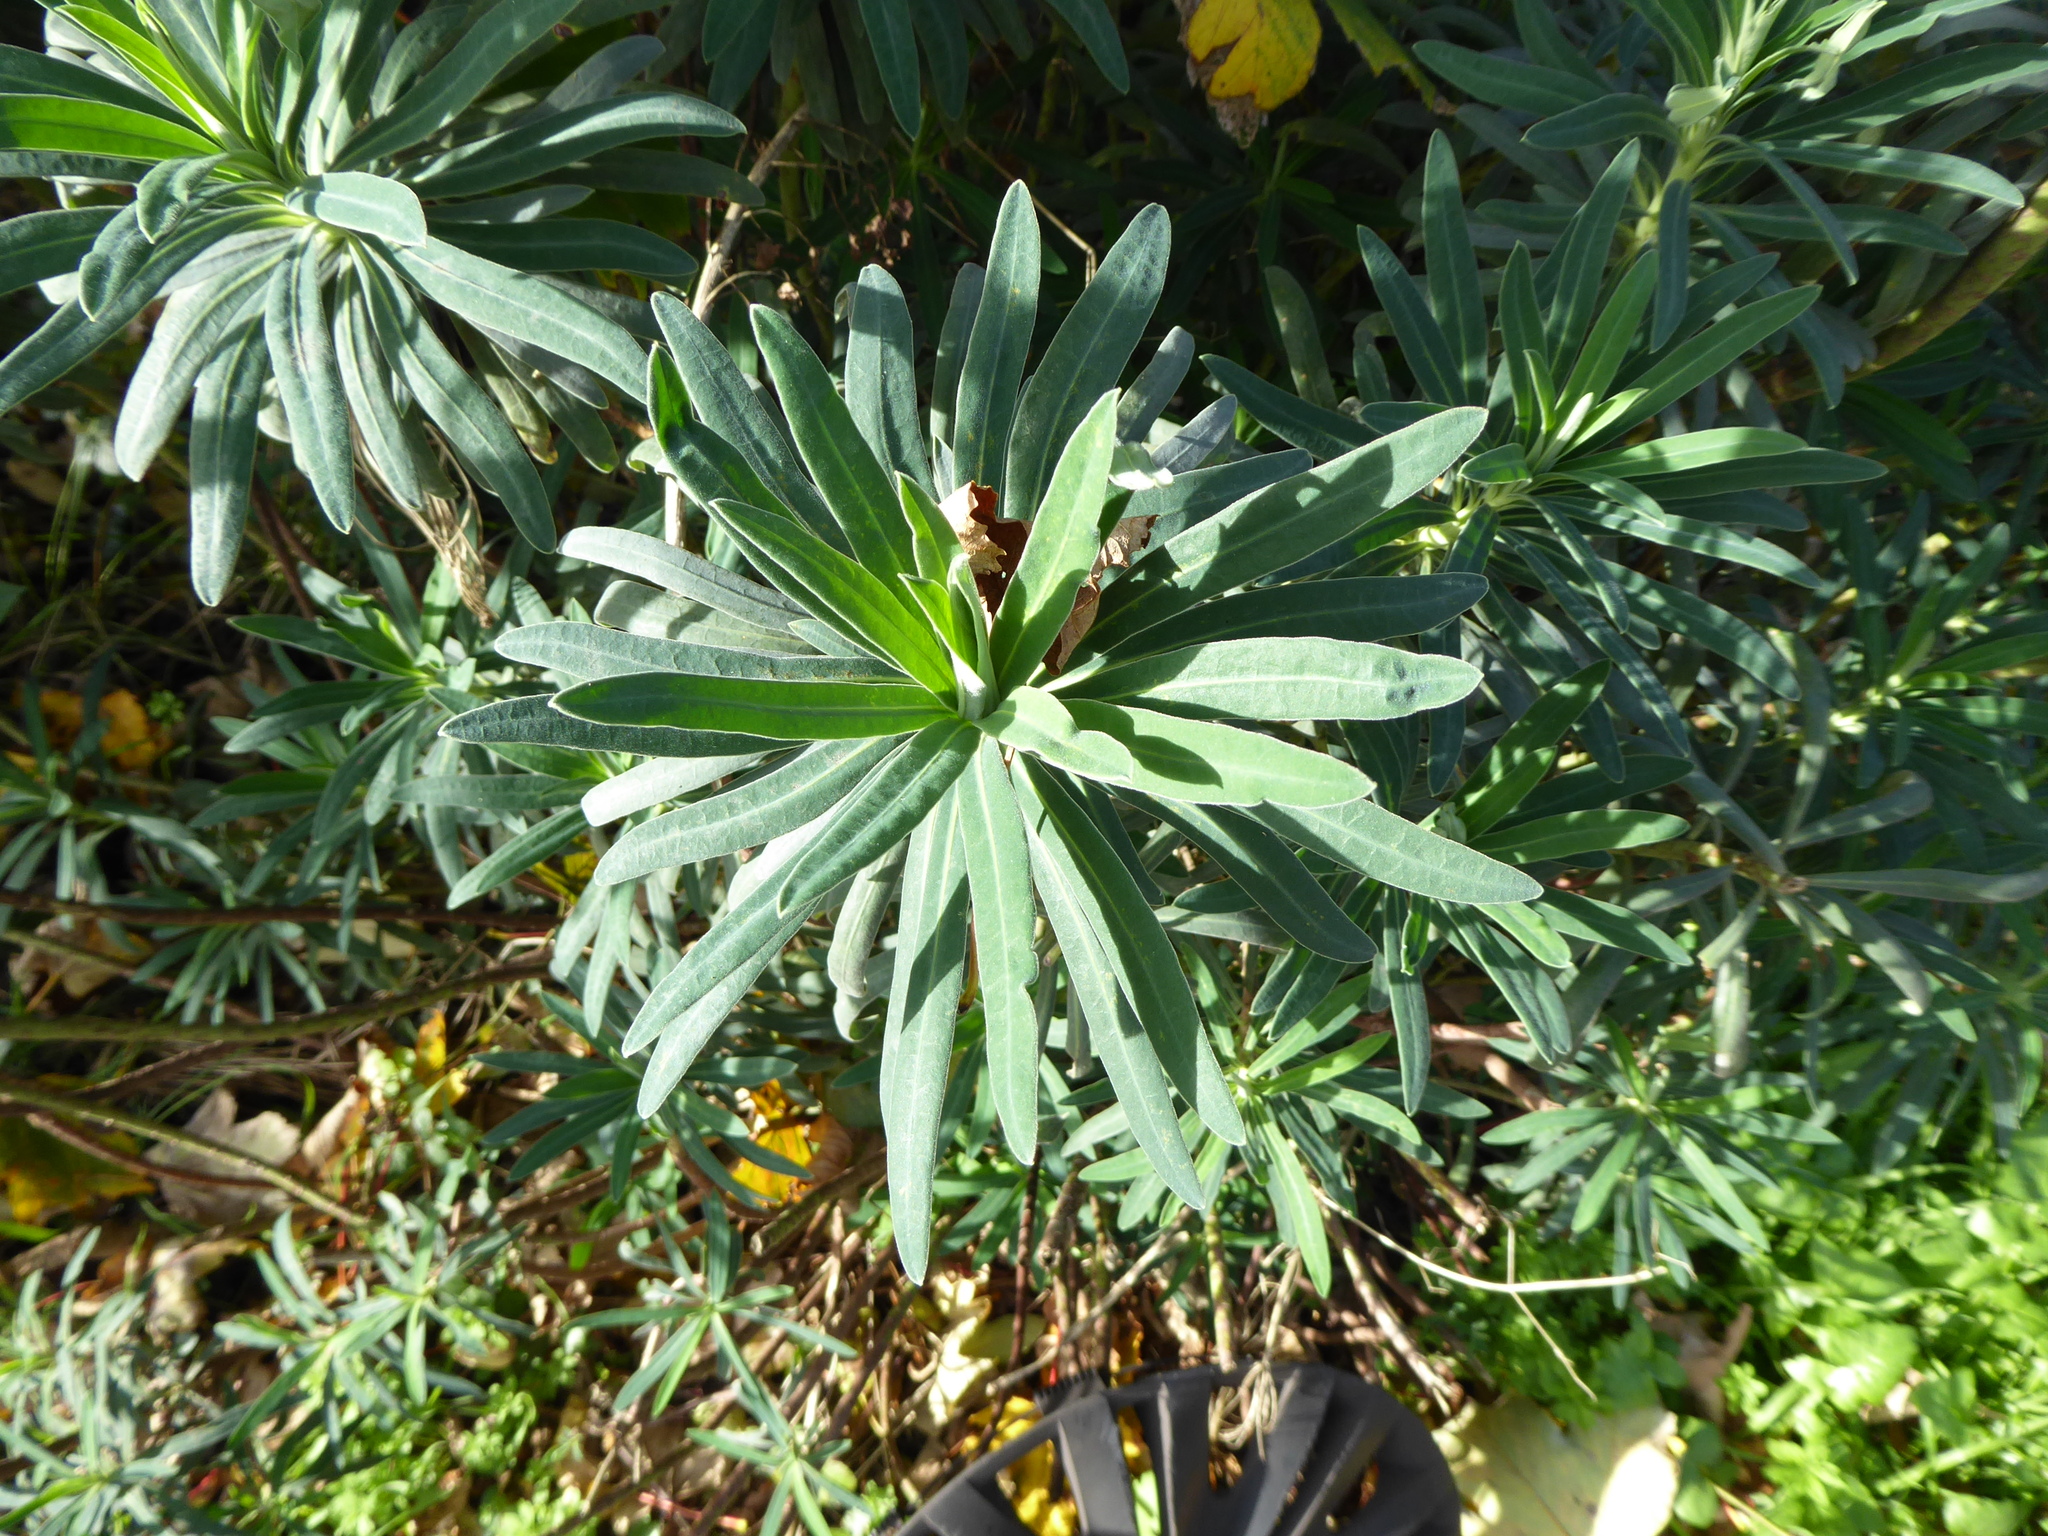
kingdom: Plantae
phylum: Tracheophyta
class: Magnoliopsida
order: Malpighiales
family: Euphorbiaceae
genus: Euphorbia
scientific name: Euphorbia characias
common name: Mediterranean spurge
